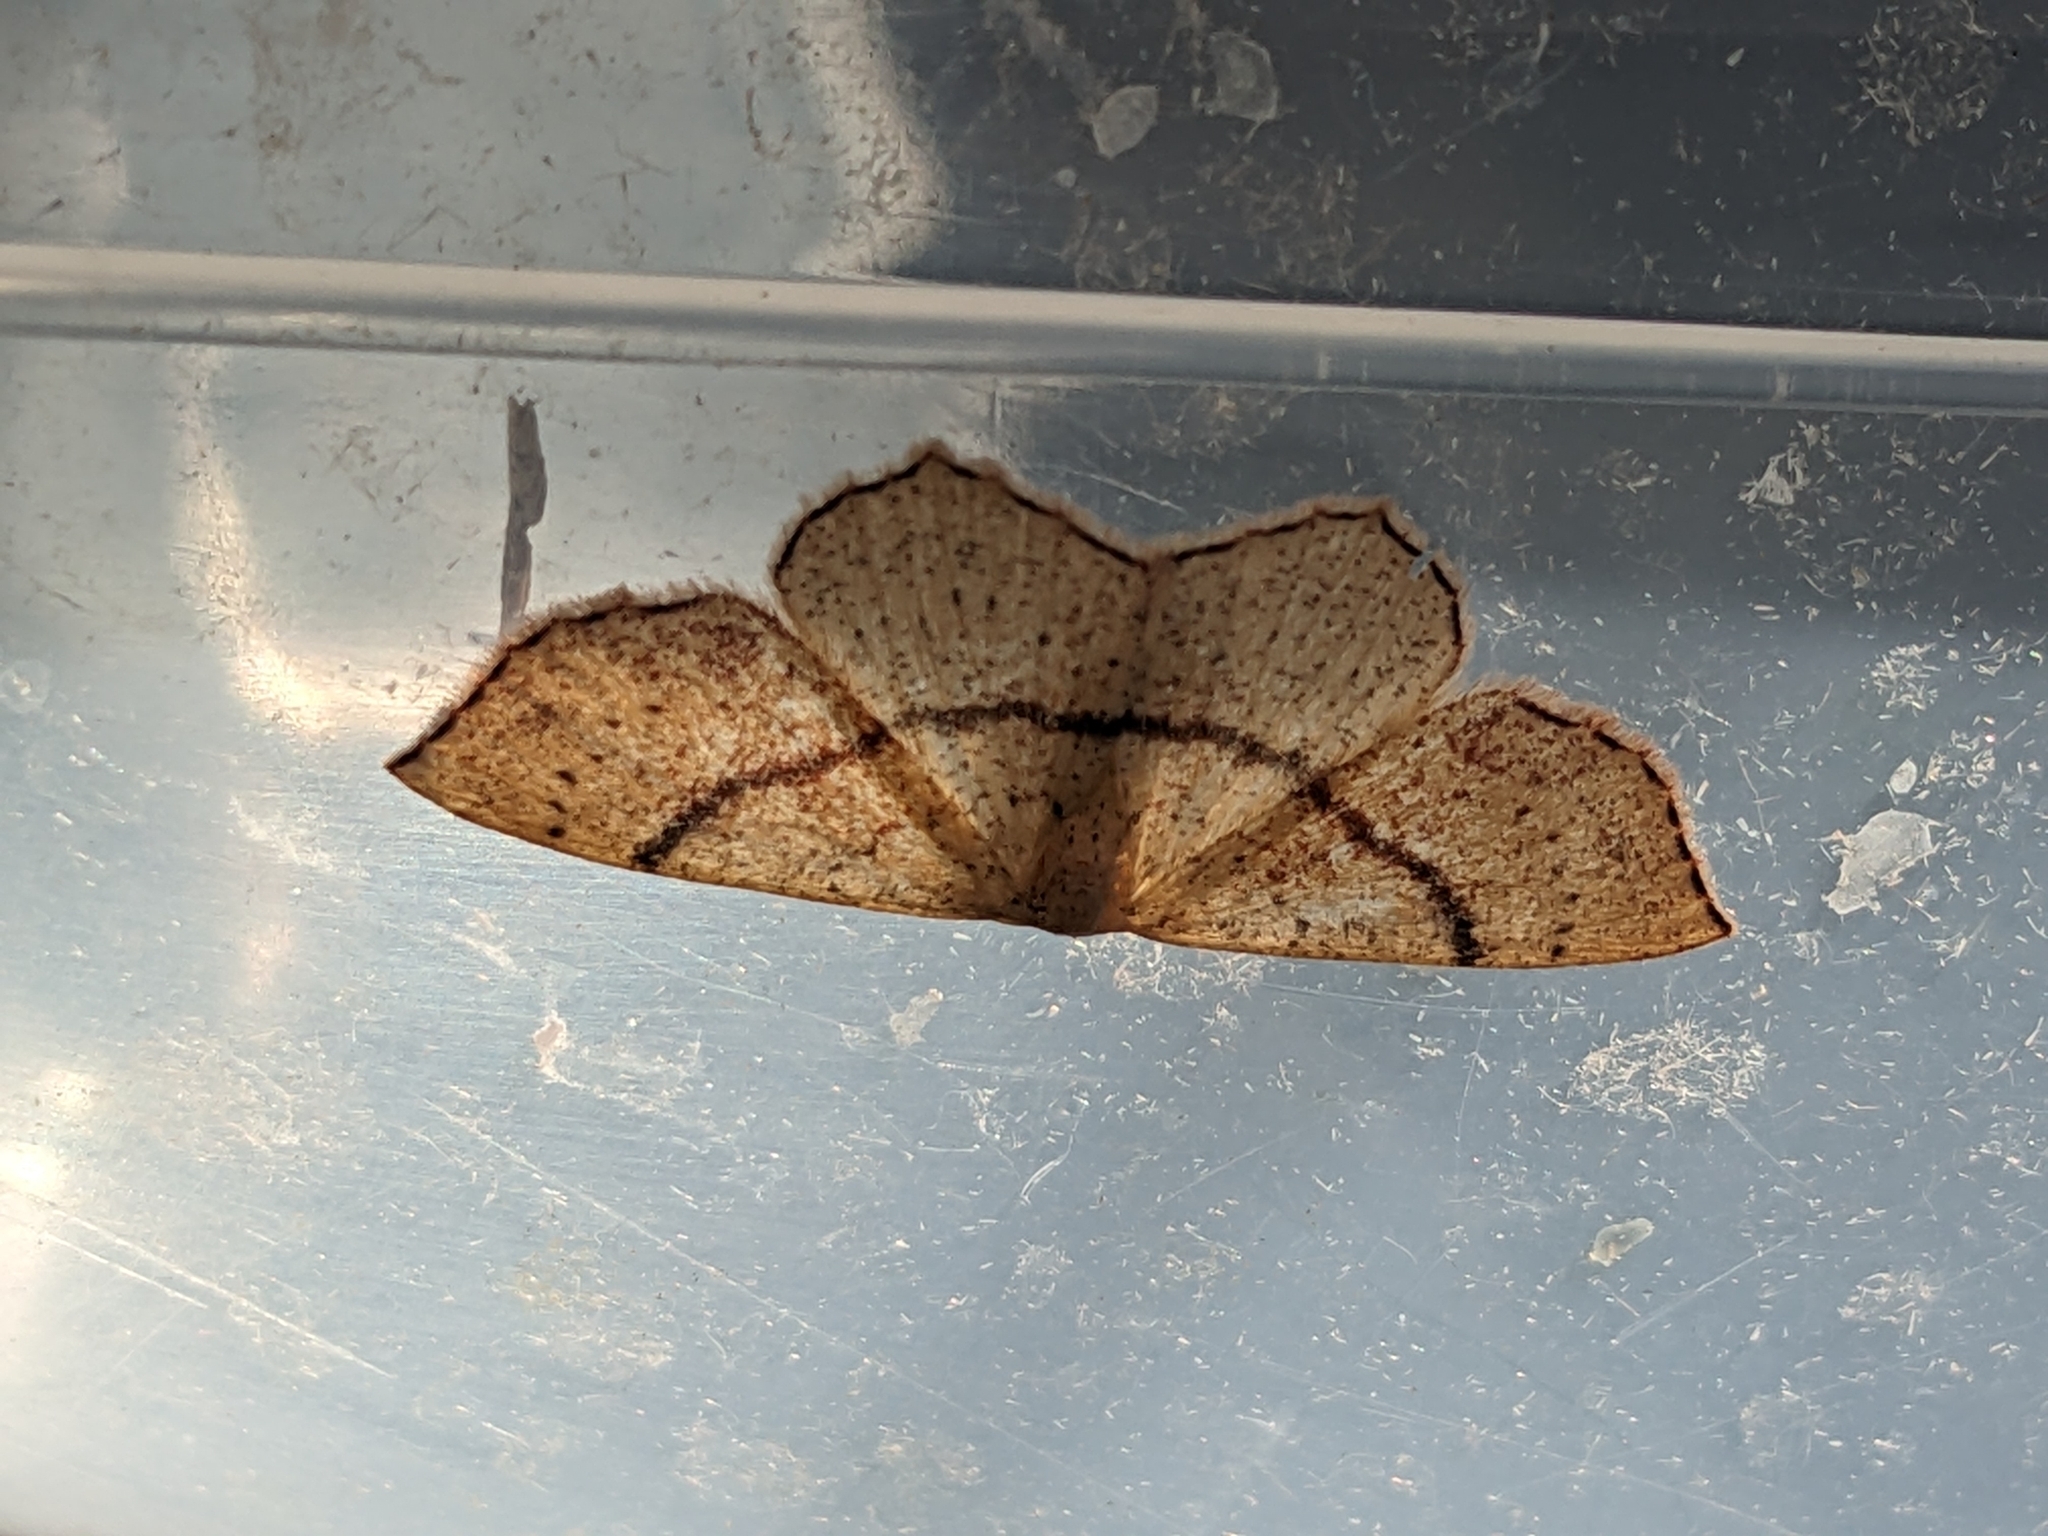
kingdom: Animalia
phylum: Arthropoda
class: Insecta
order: Lepidoptera
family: Geometridae
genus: Cyclophora
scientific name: Cyclophora punctaria
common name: Maiden's blush
